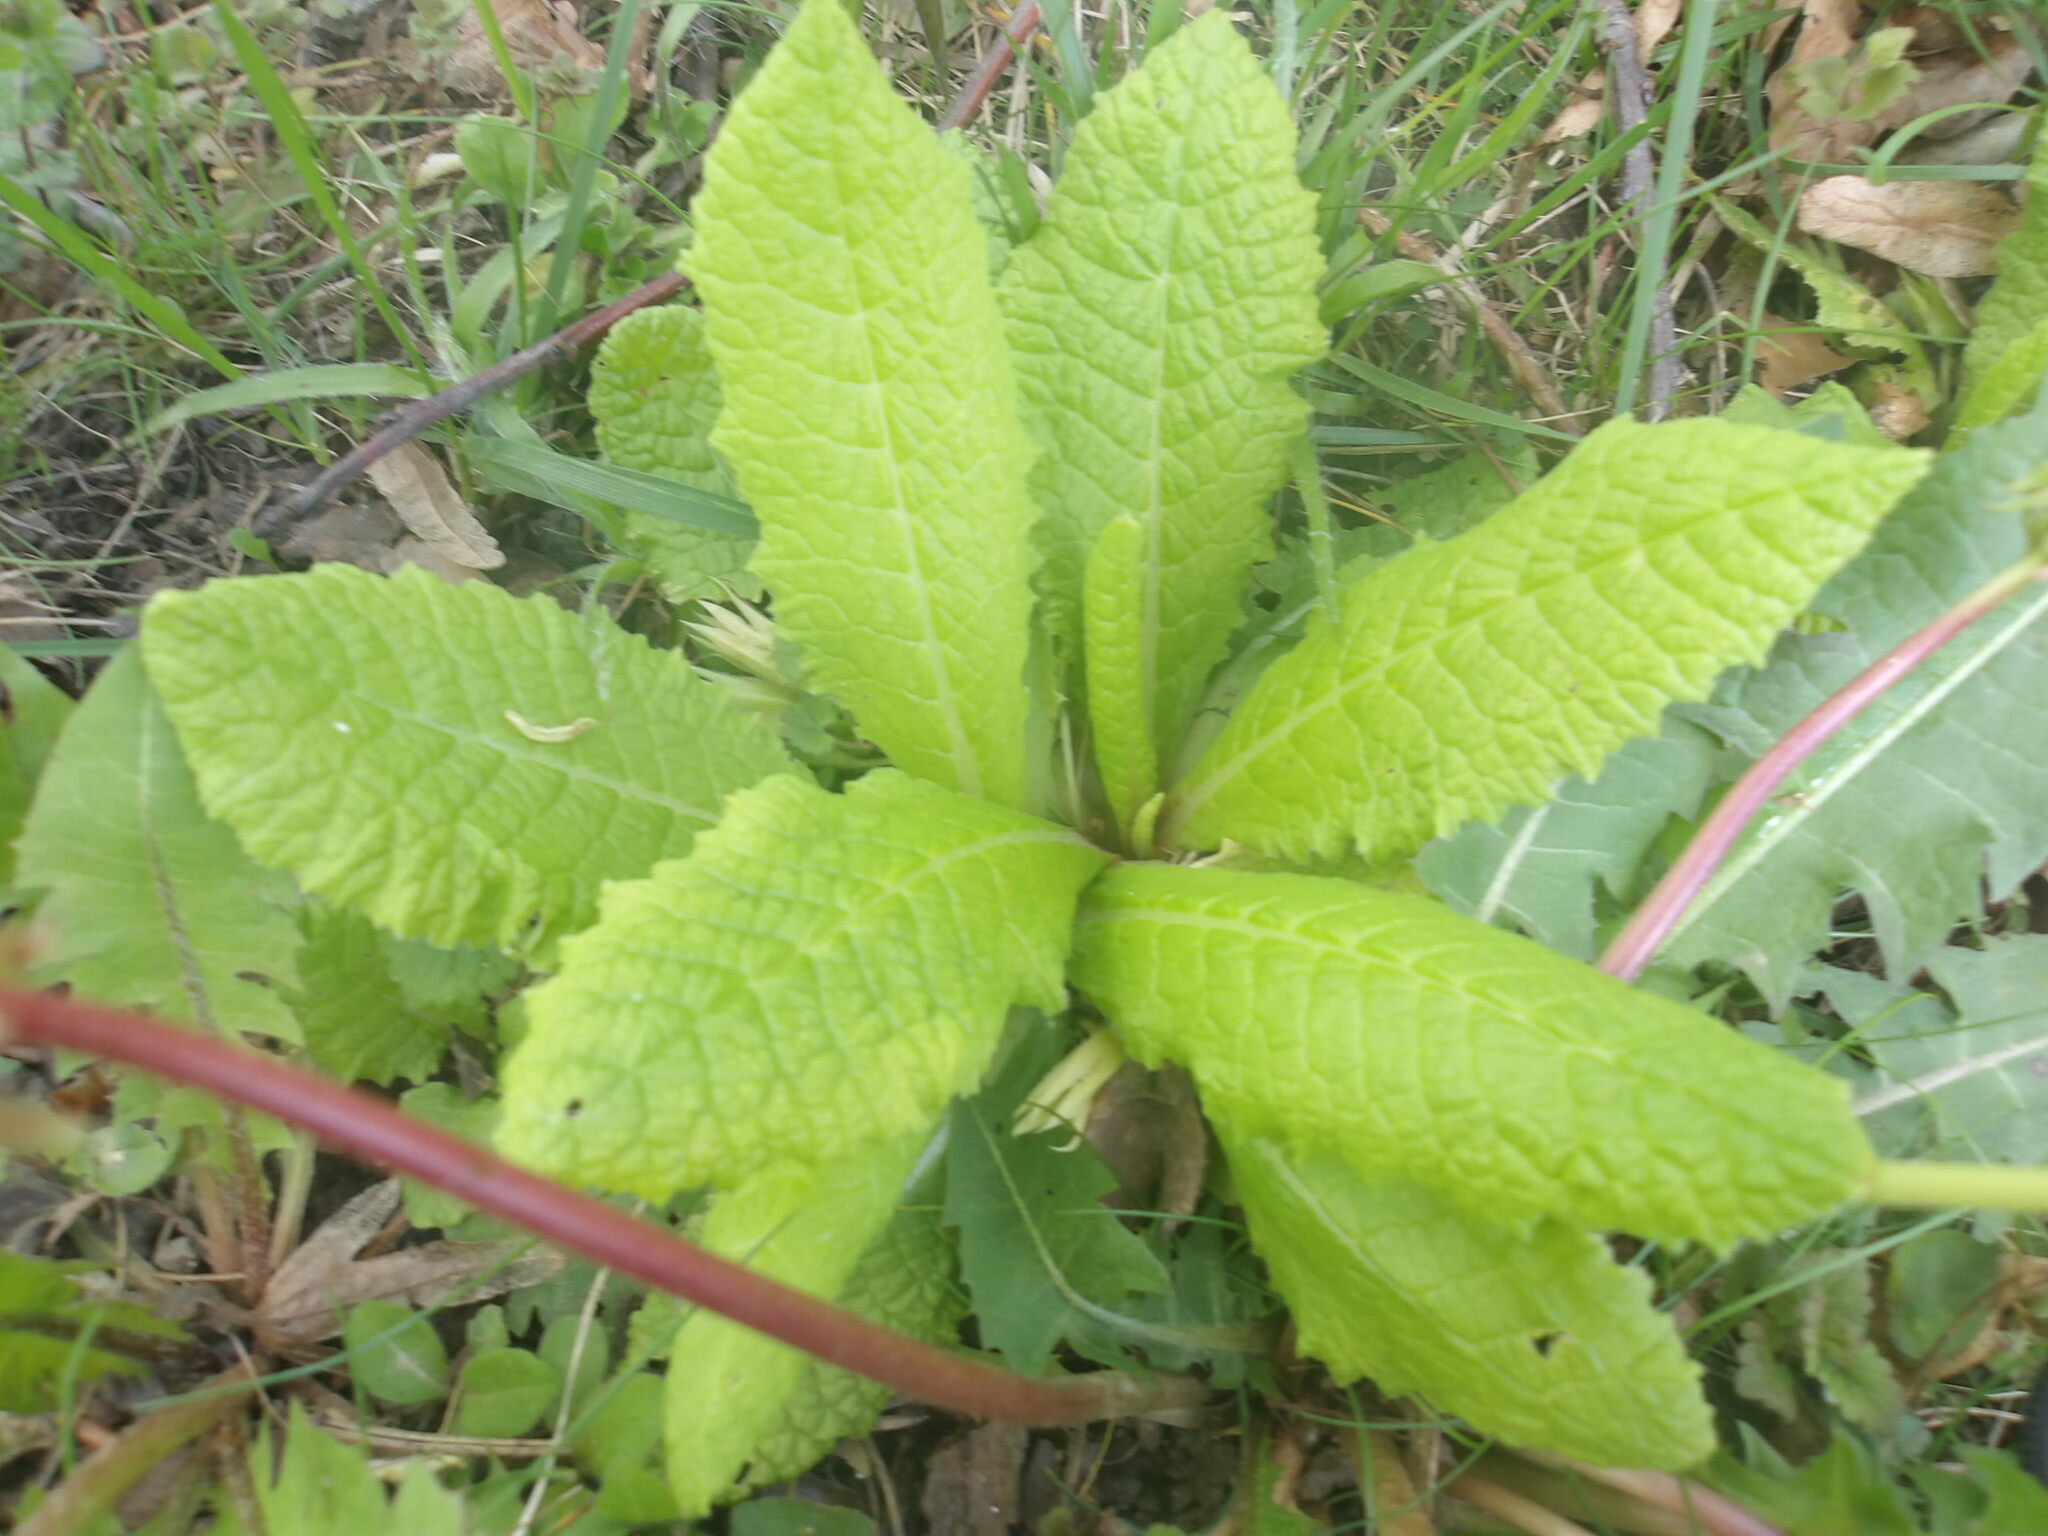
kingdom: Plantae
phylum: Tracheophyta
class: Magnoliopsida
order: Ericales
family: Primulaceae
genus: Primula
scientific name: Primula vulgaris
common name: Primrose
